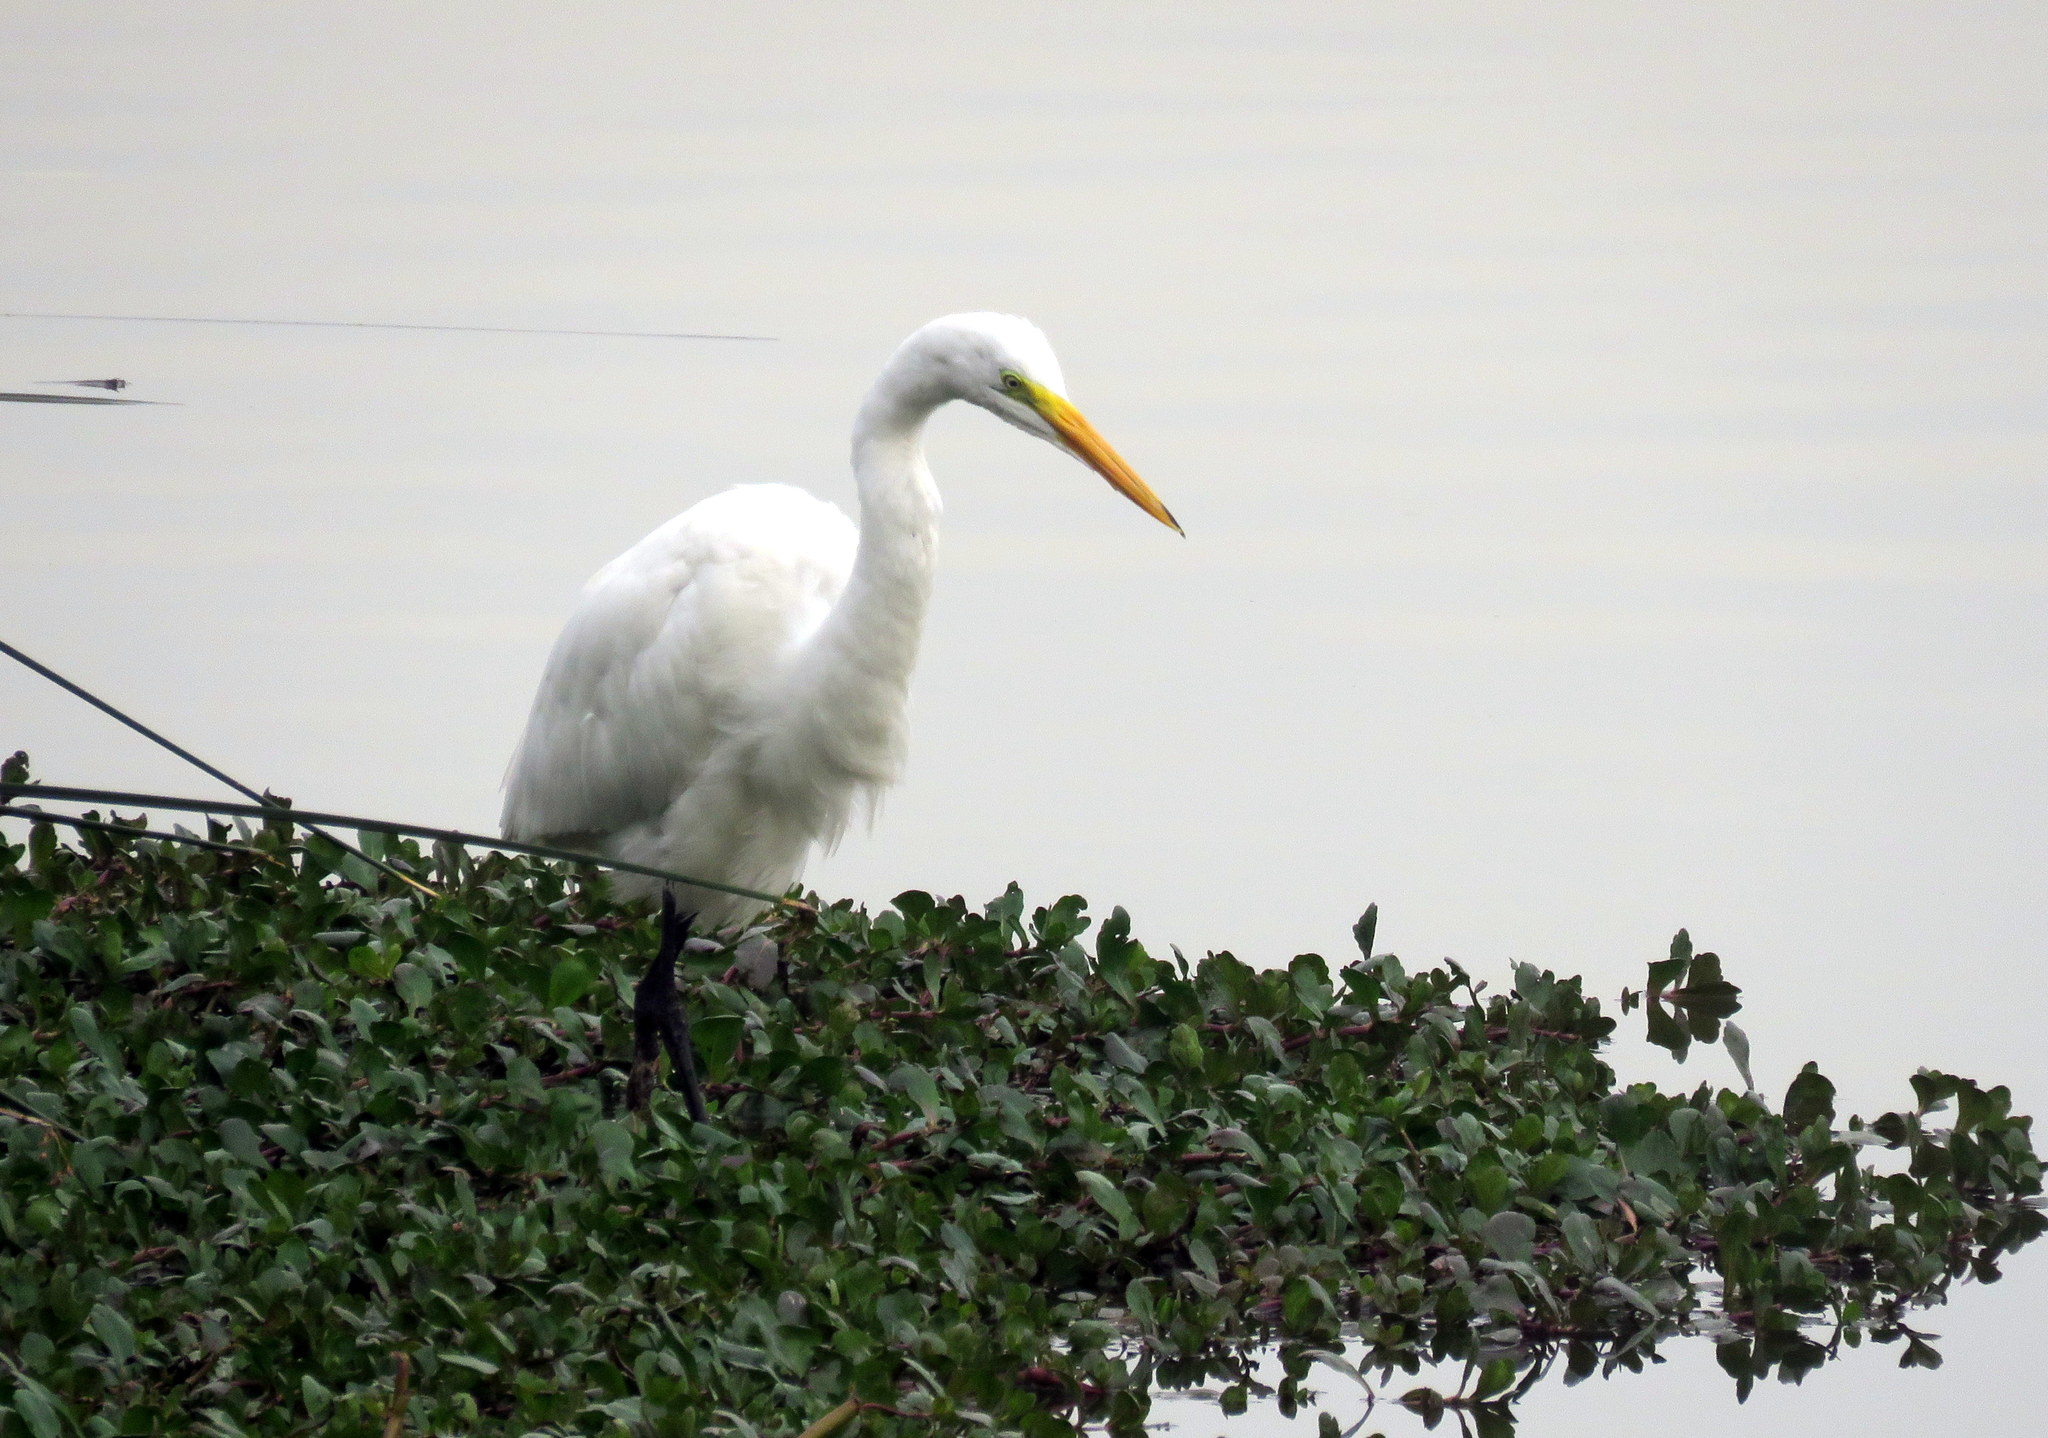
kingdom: Animalia
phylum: Chordata
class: Aves
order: Pelecaniformes
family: Ardeidae
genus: Ardea
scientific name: Ardea alba
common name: Great egret
